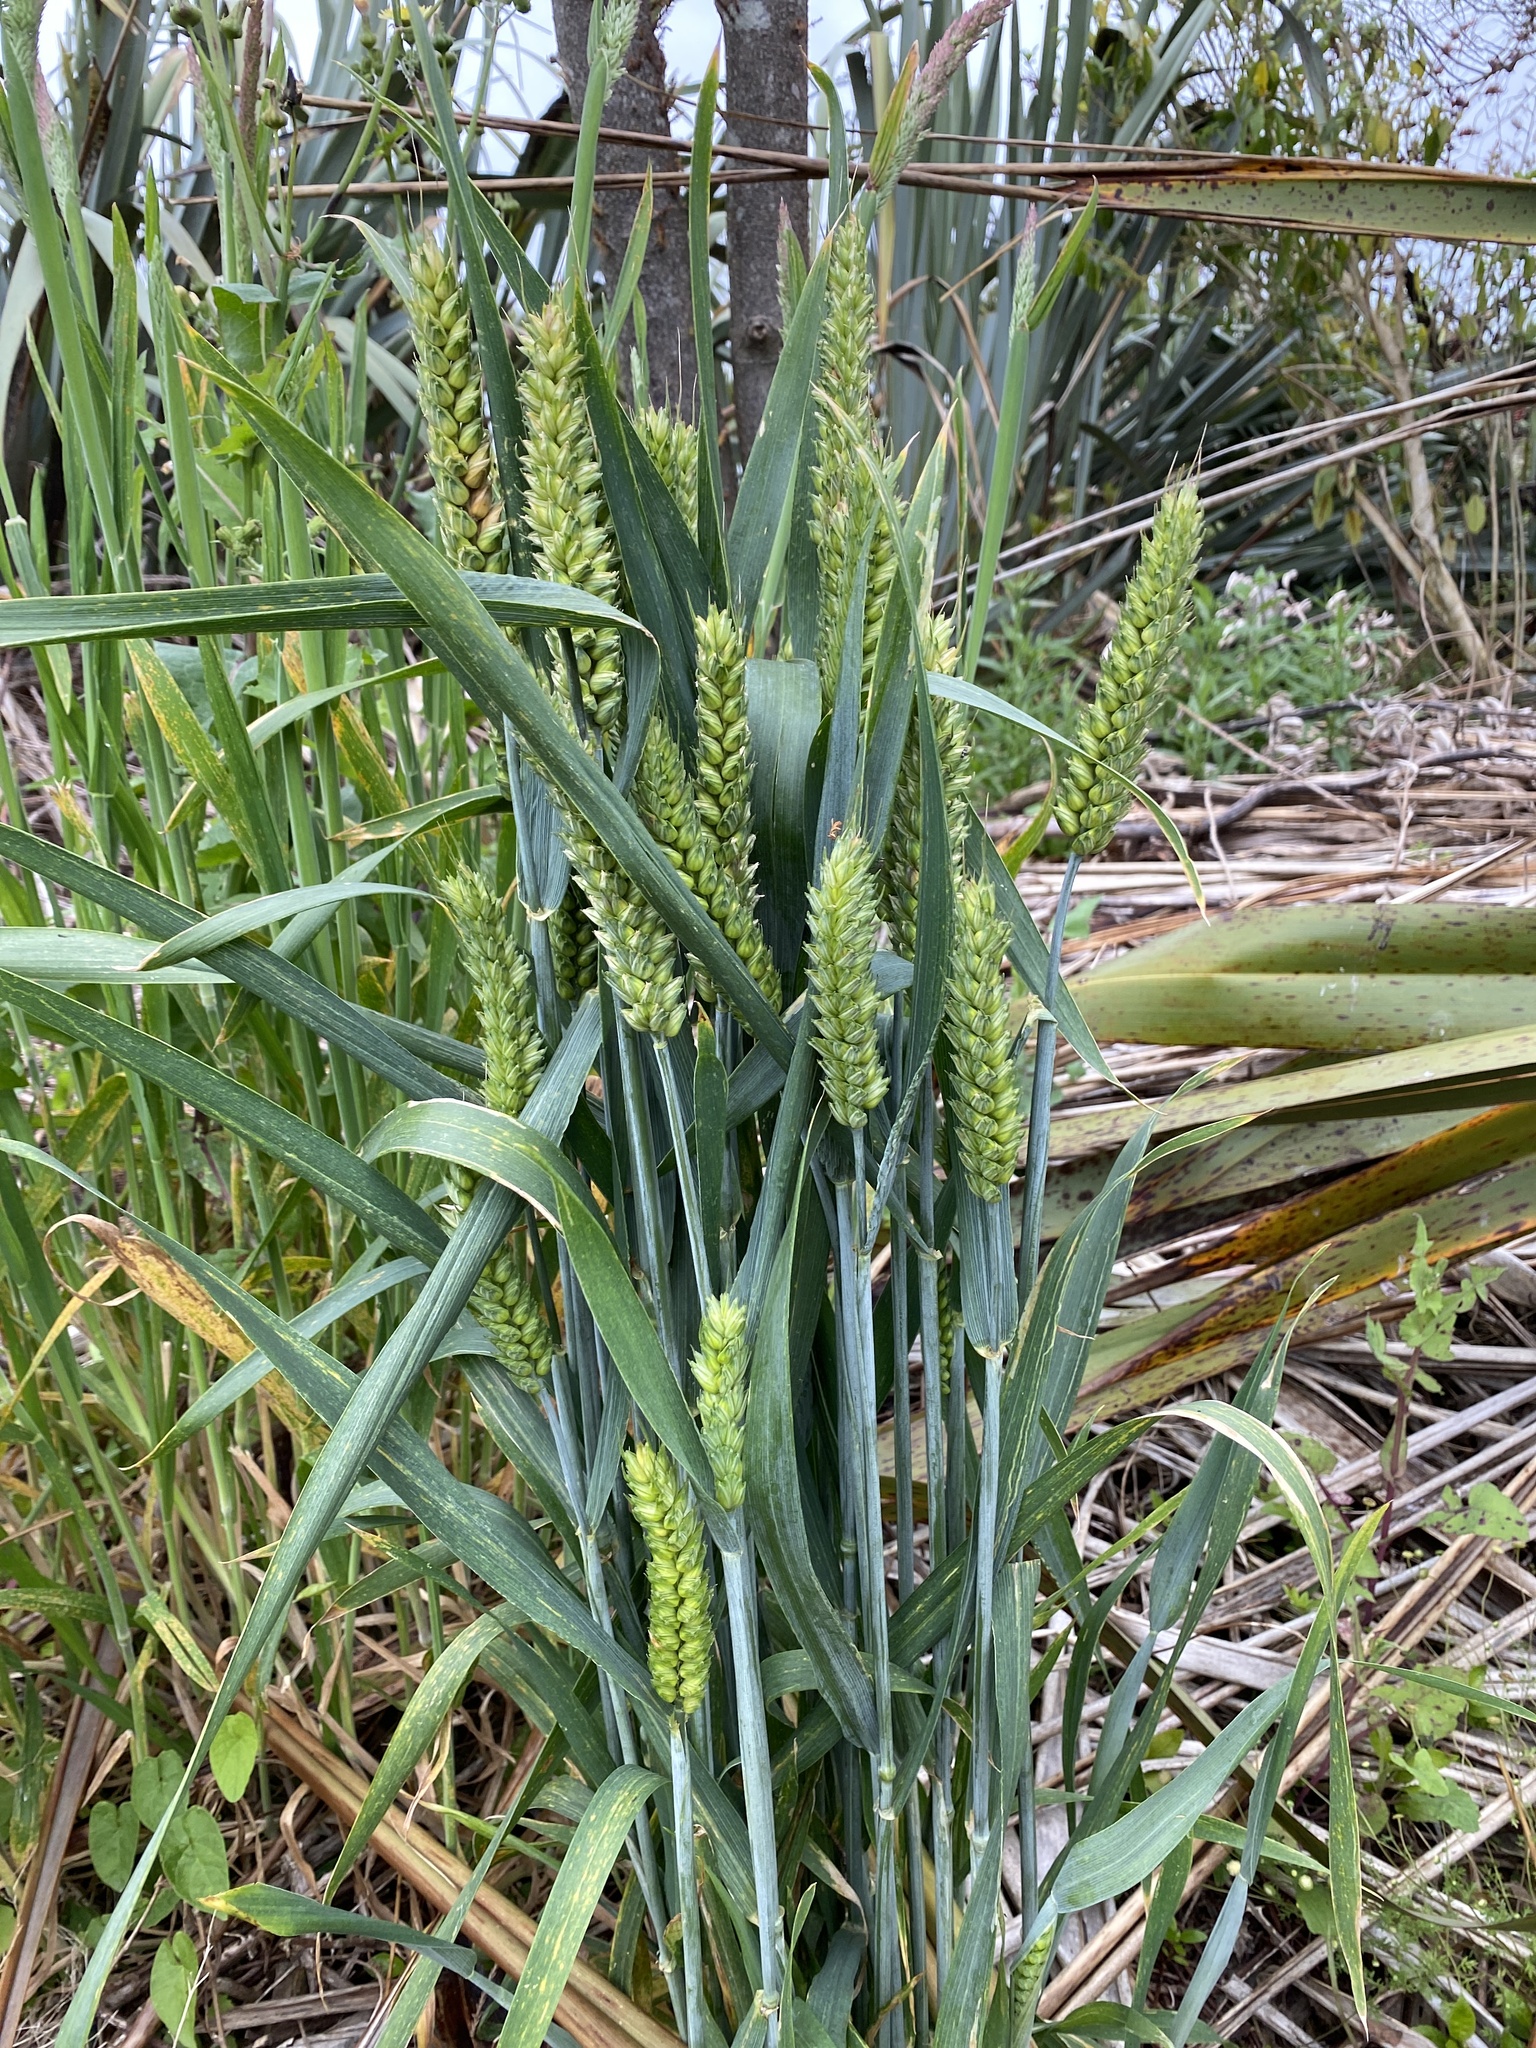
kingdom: Plantae
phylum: Tracheophyta
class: Liliopsida
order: Poales
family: Poaceae
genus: Triticum
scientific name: Triticum aestivum
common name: Common wheat
